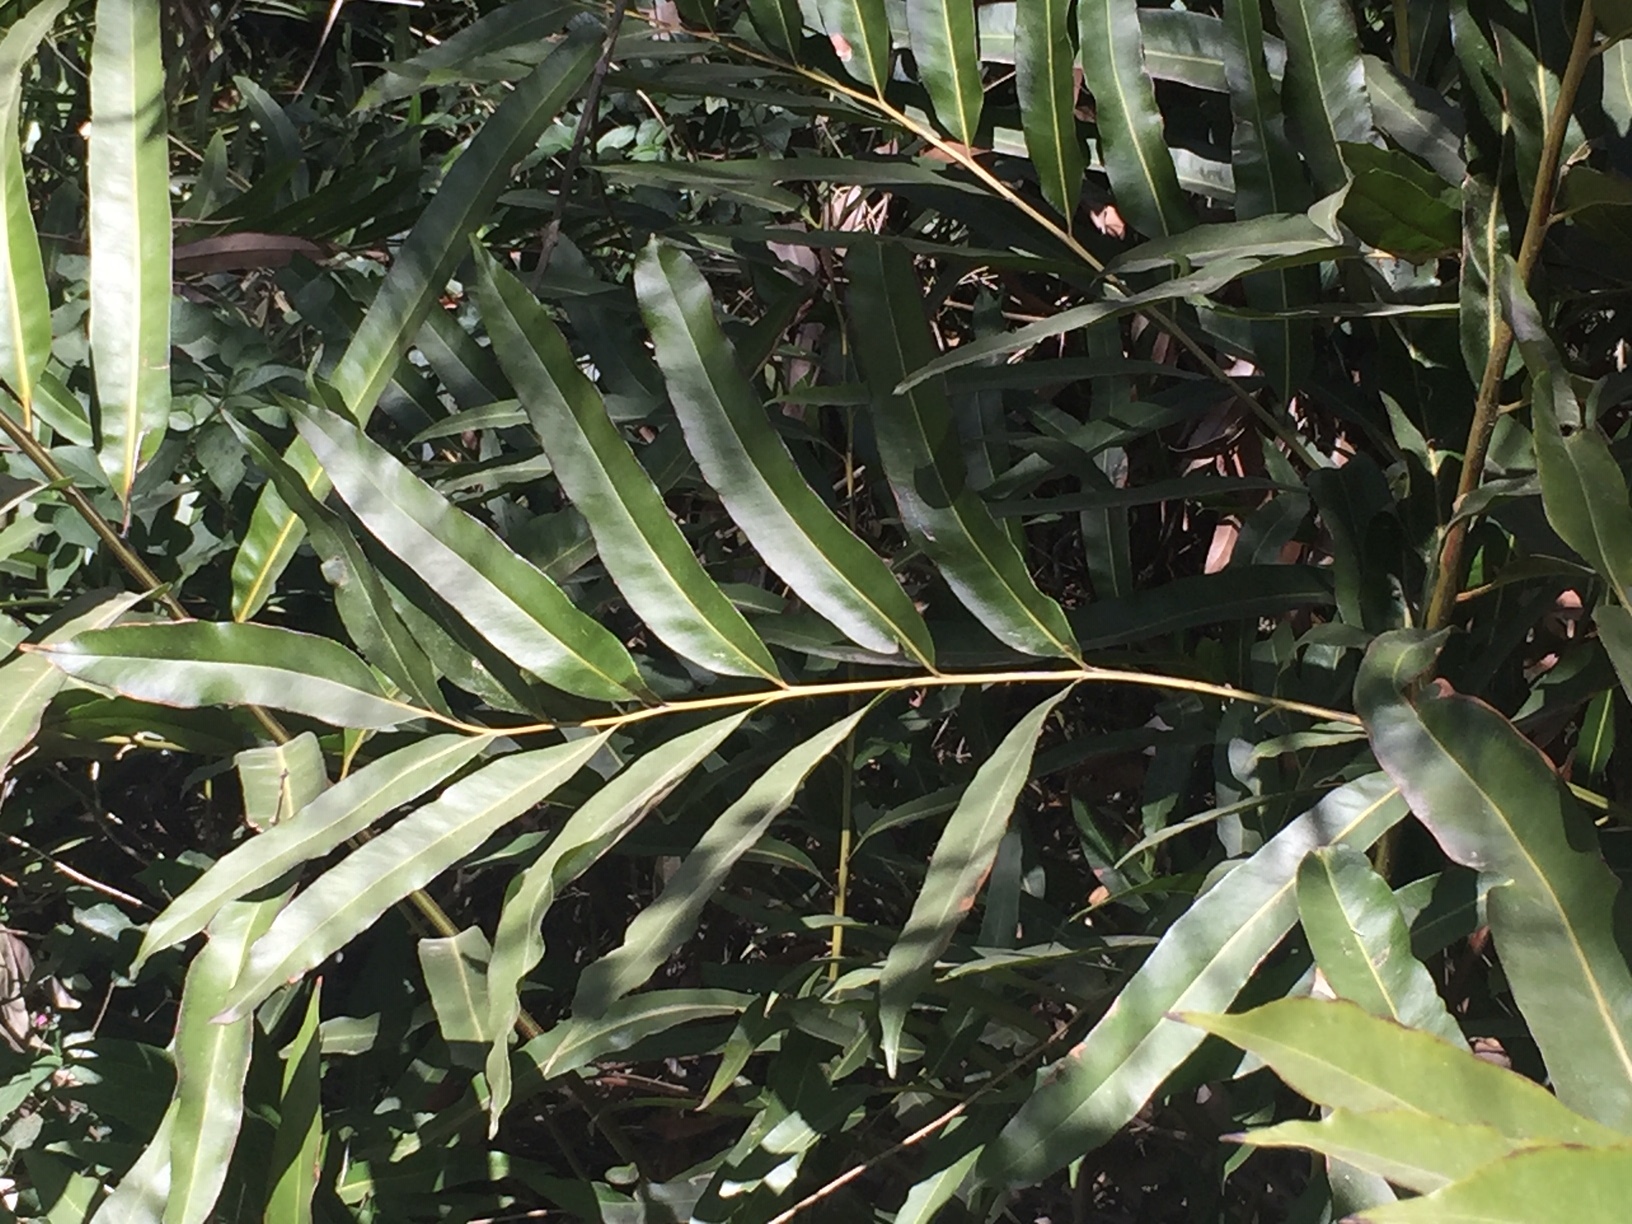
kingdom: Plantae
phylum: Tracheophyta
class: Polypodiopsida
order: Polypodiales
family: Pteridaceae
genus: Acrostichum
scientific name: Acrostichum speciosum
